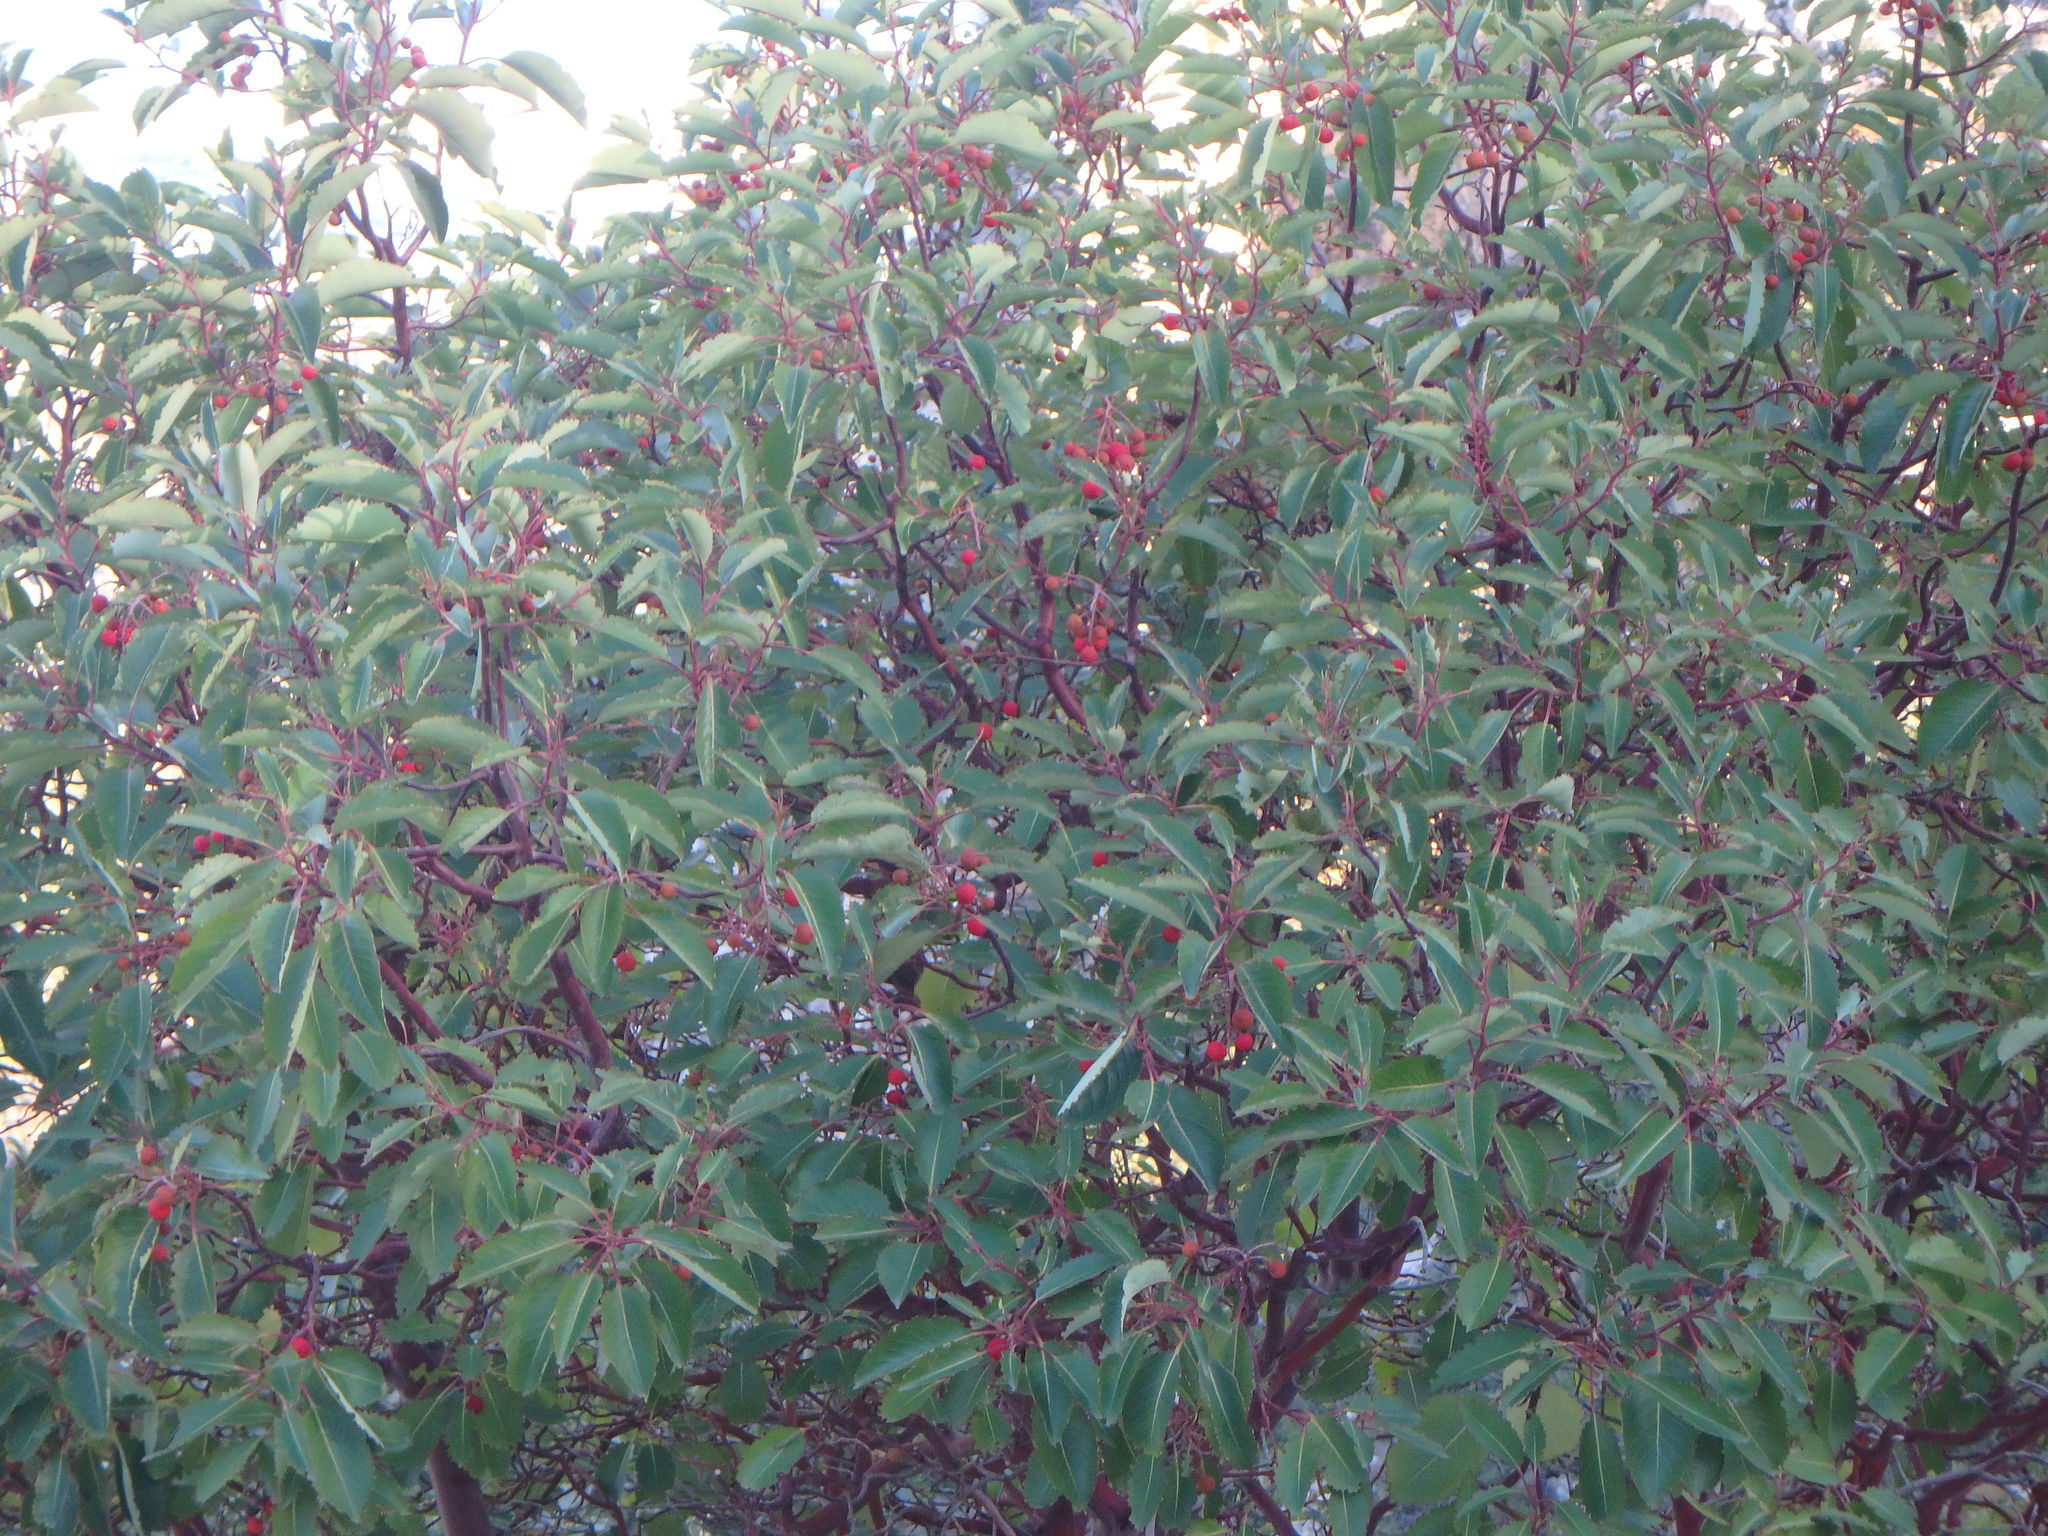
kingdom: Plantae
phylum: Tracheophyta
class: Magnoliopsida
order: Ericales
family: Ericaceae
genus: Arbutus
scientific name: Arbutus andrachne
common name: Greek strawberry tree
